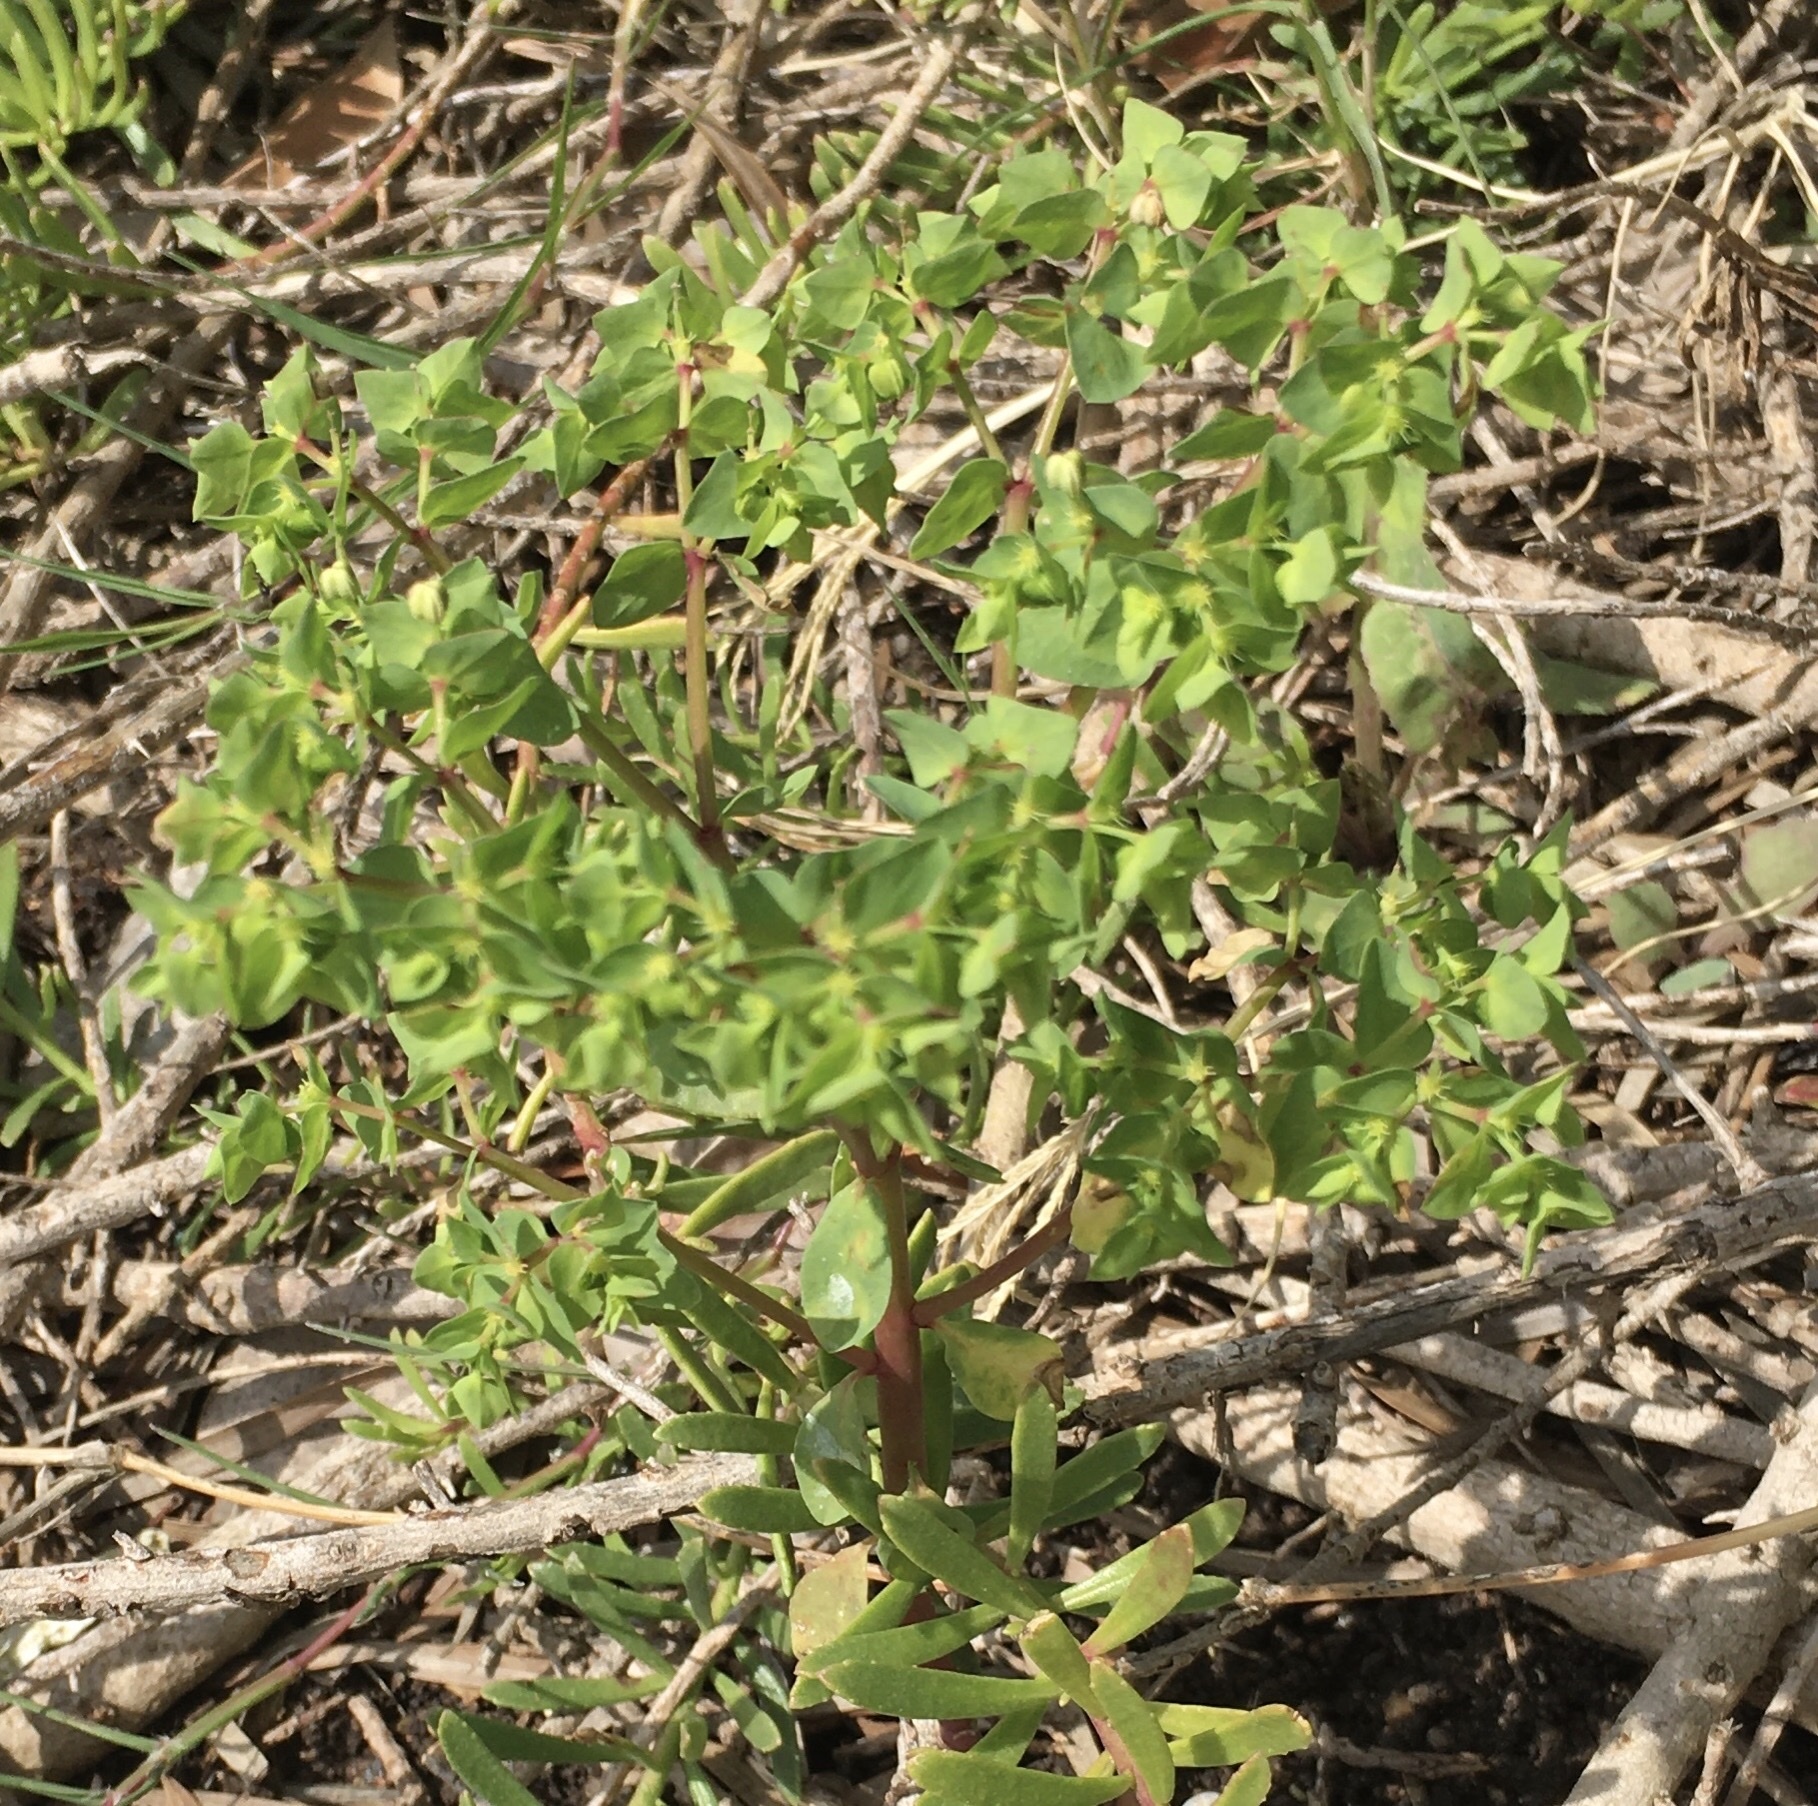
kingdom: Plantae
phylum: Tracheophyta
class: Magnoliopsida
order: Malpighiales
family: Euphorbiaceae
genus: Euphorbia
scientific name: Euphorbia peplus
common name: Petty spurge
